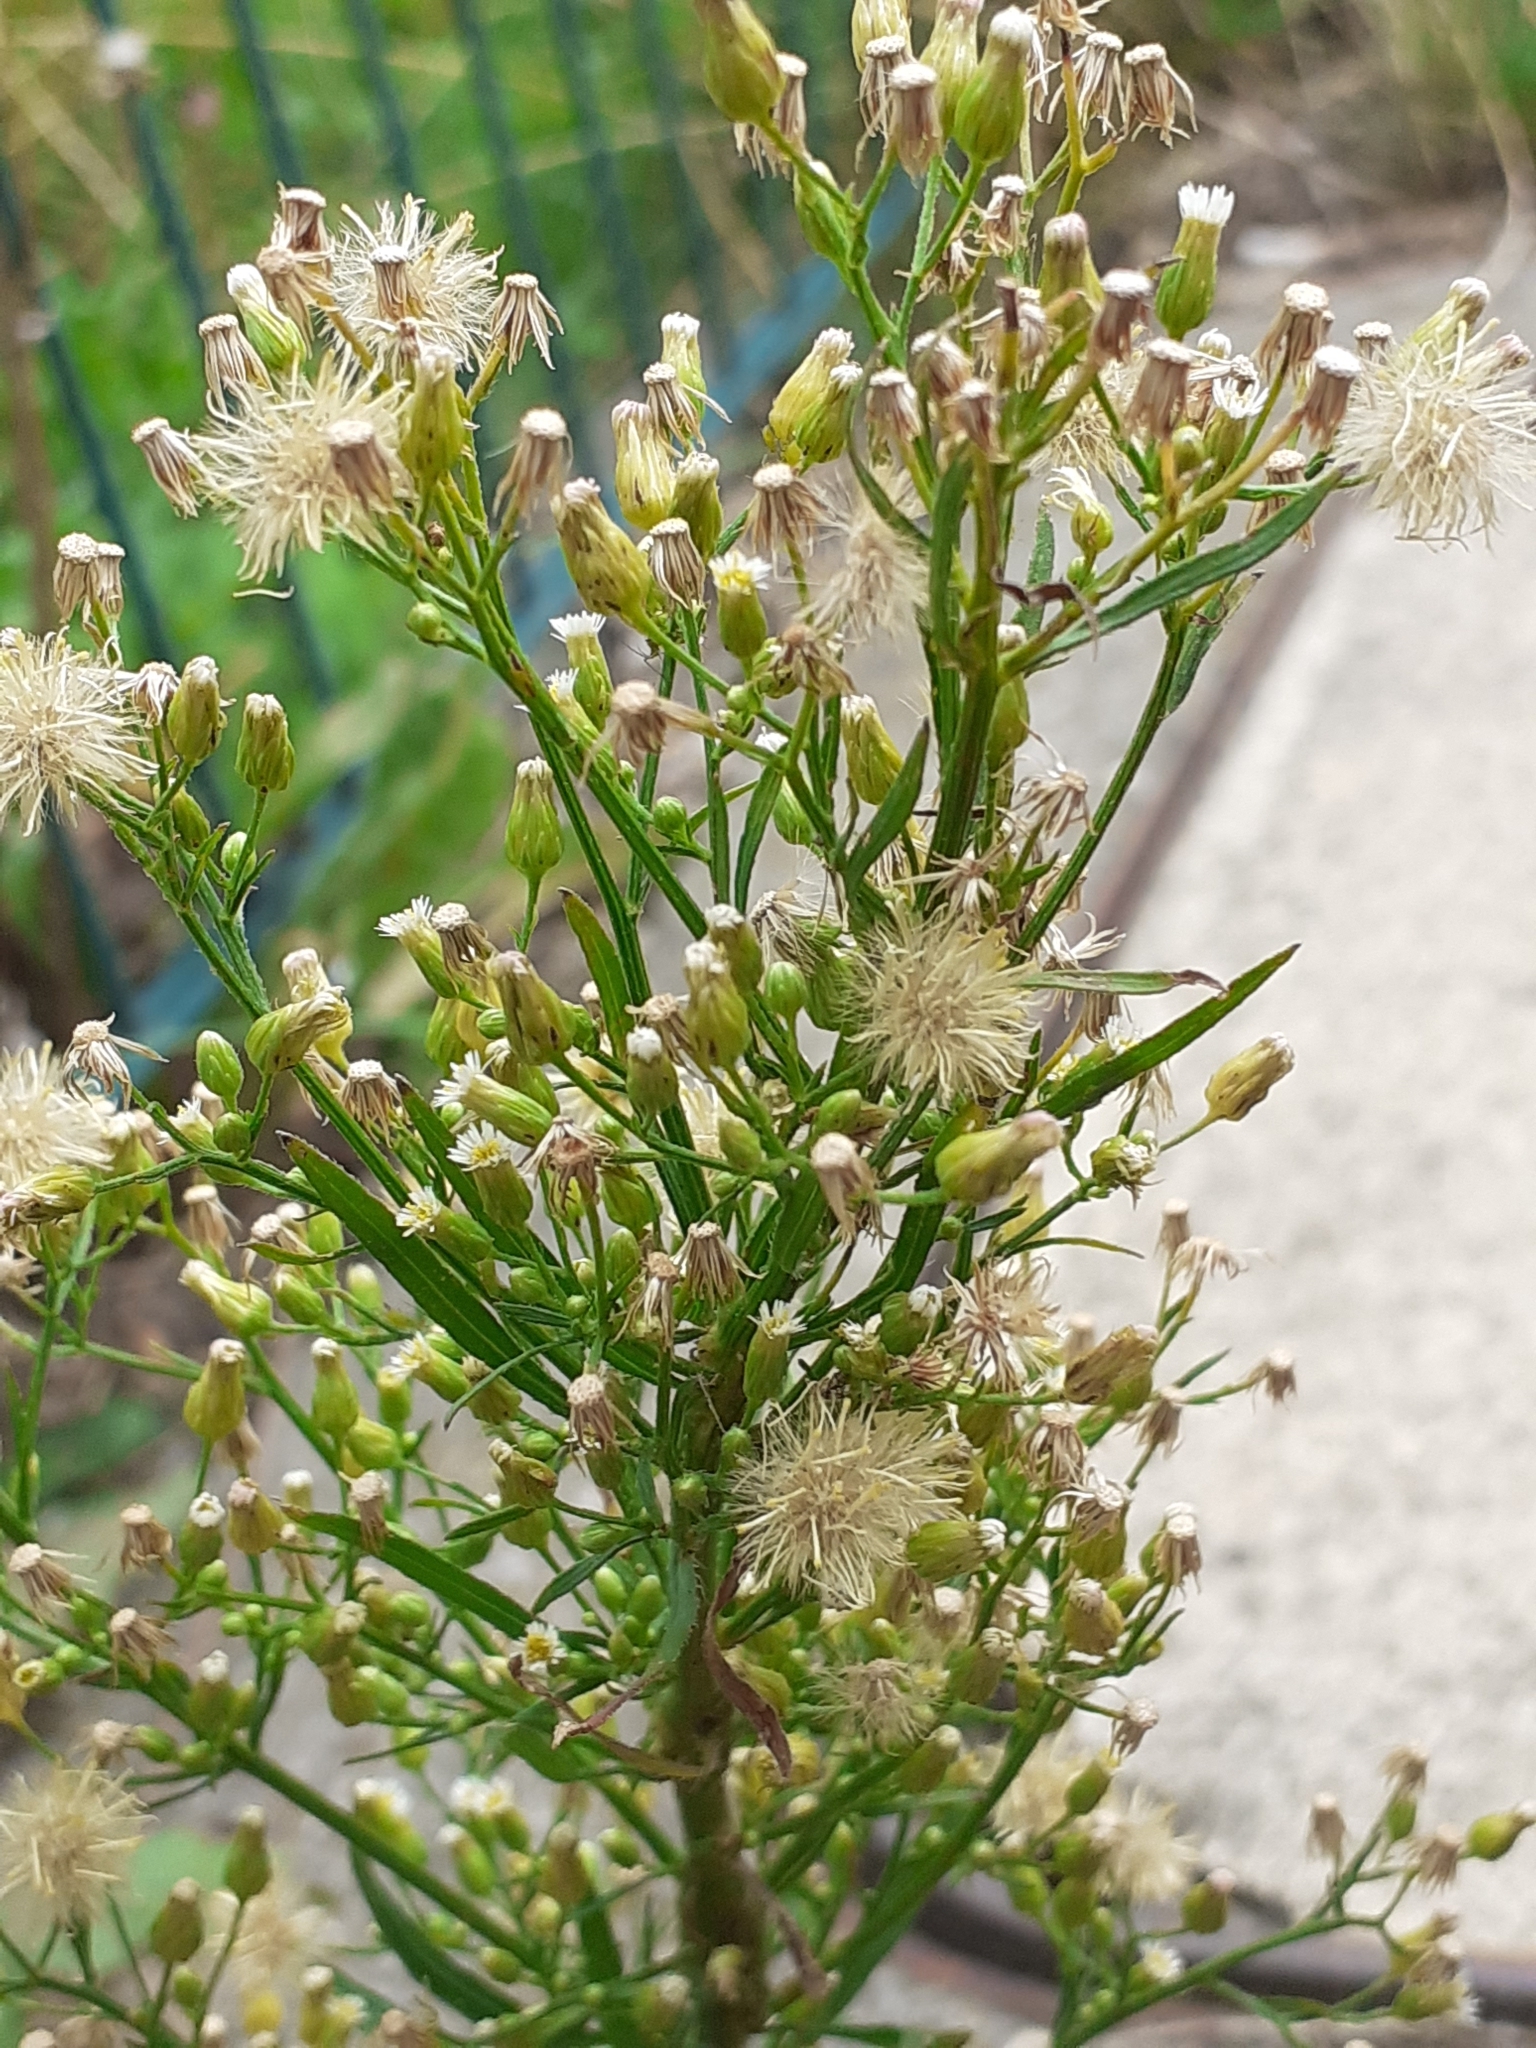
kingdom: Plantae
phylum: Tracheophyta
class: Magnoliopsida
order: Asterales
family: Asteraceae
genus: Erigeron
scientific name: Erigeron canadensis
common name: Canadian fleabane
